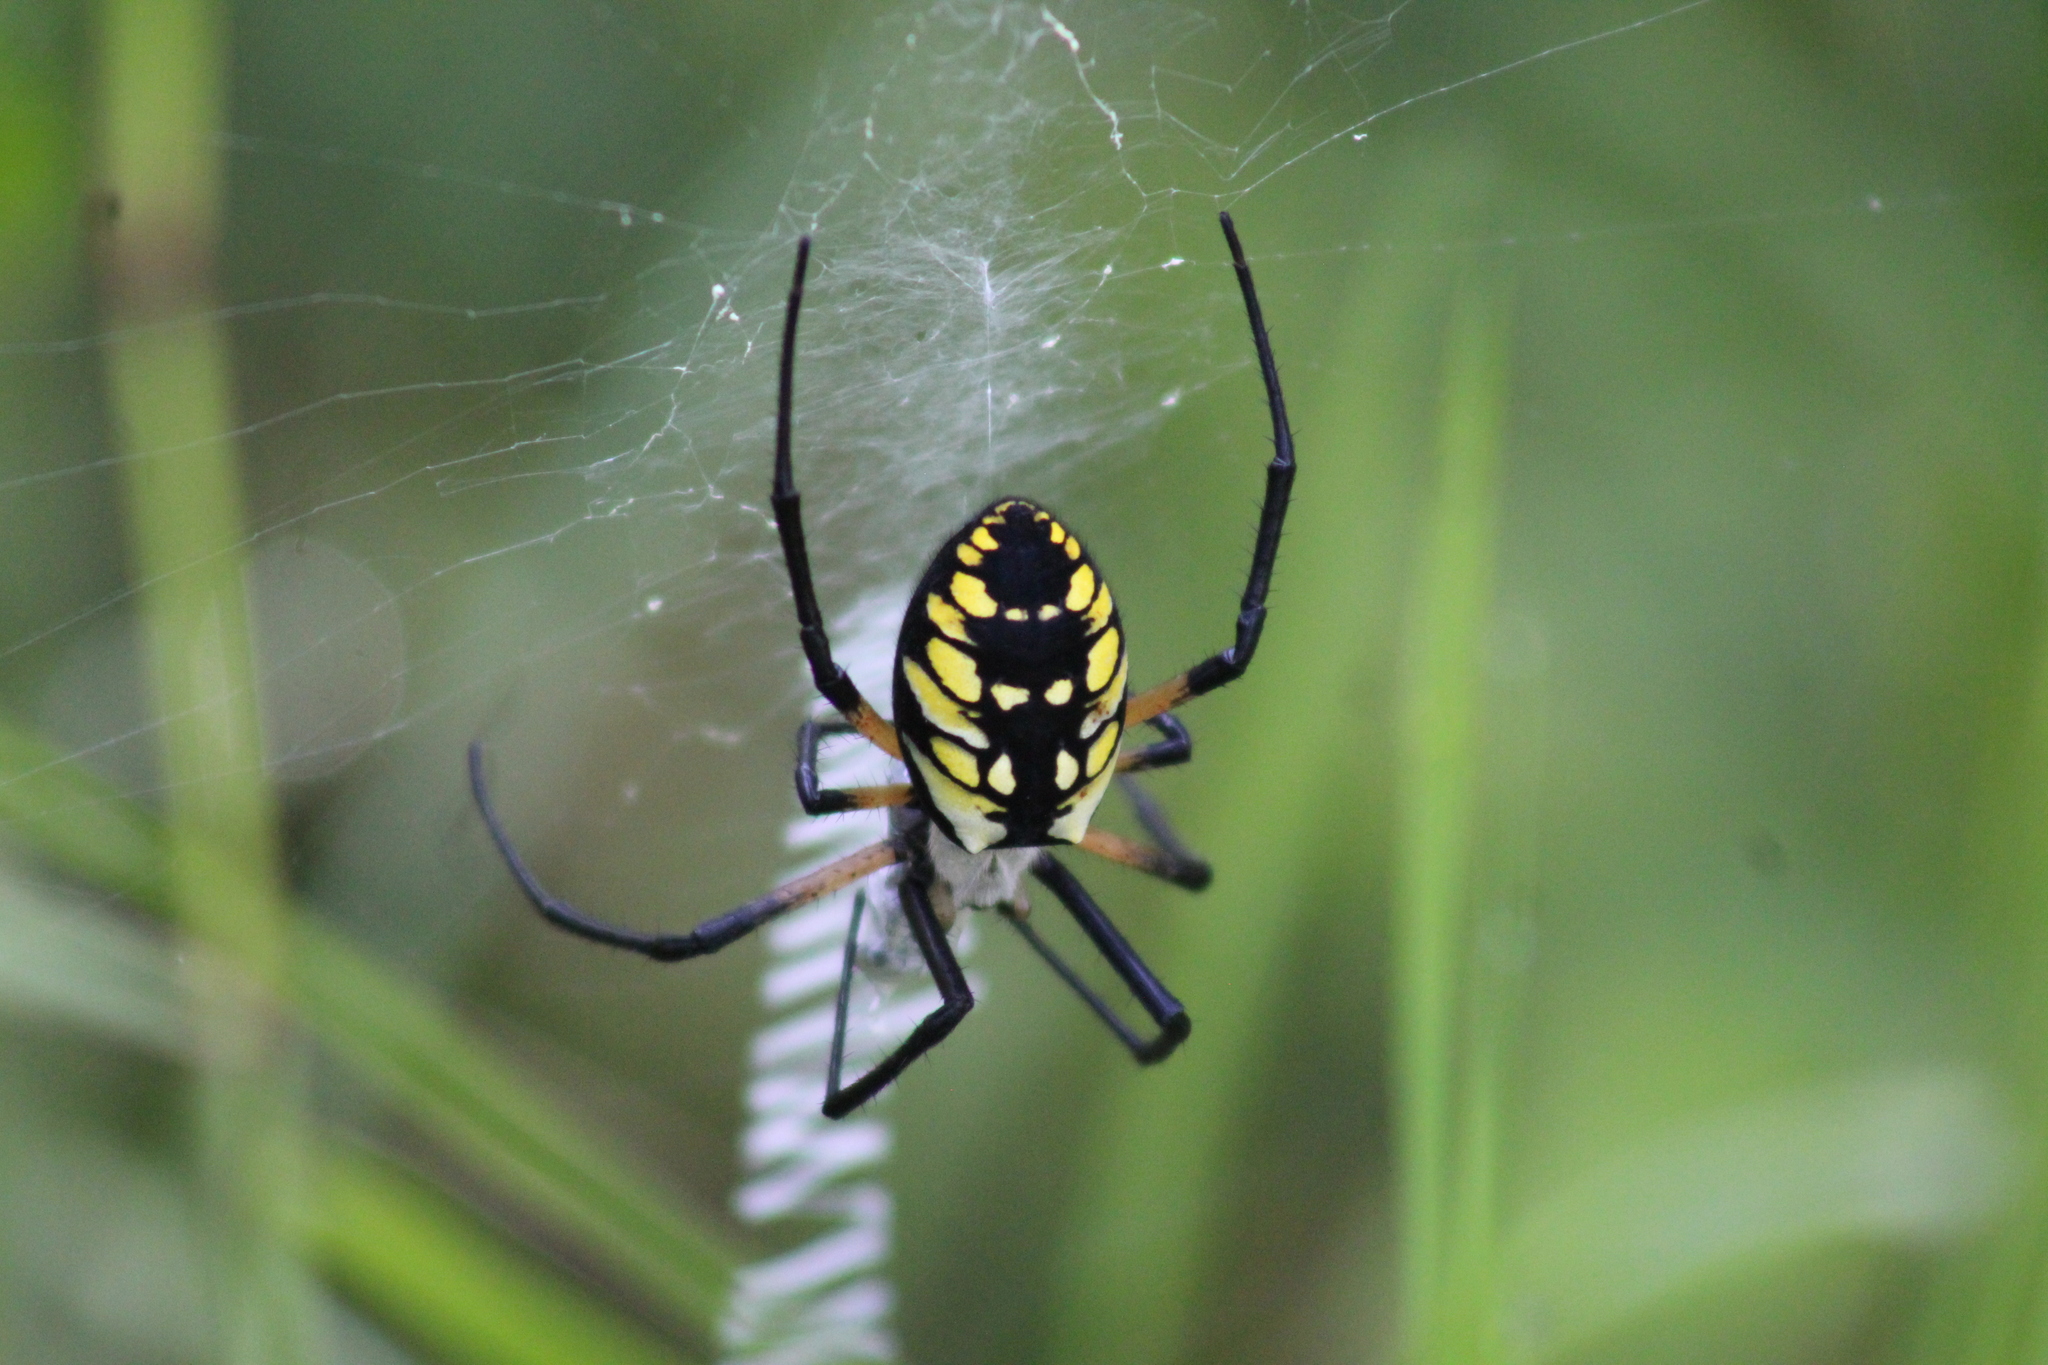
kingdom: Animalia
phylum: Arthropoda
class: Arachnida
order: Araneae
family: Araneidae
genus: Argiope
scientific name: Argiope aurantia
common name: Orb weavers
